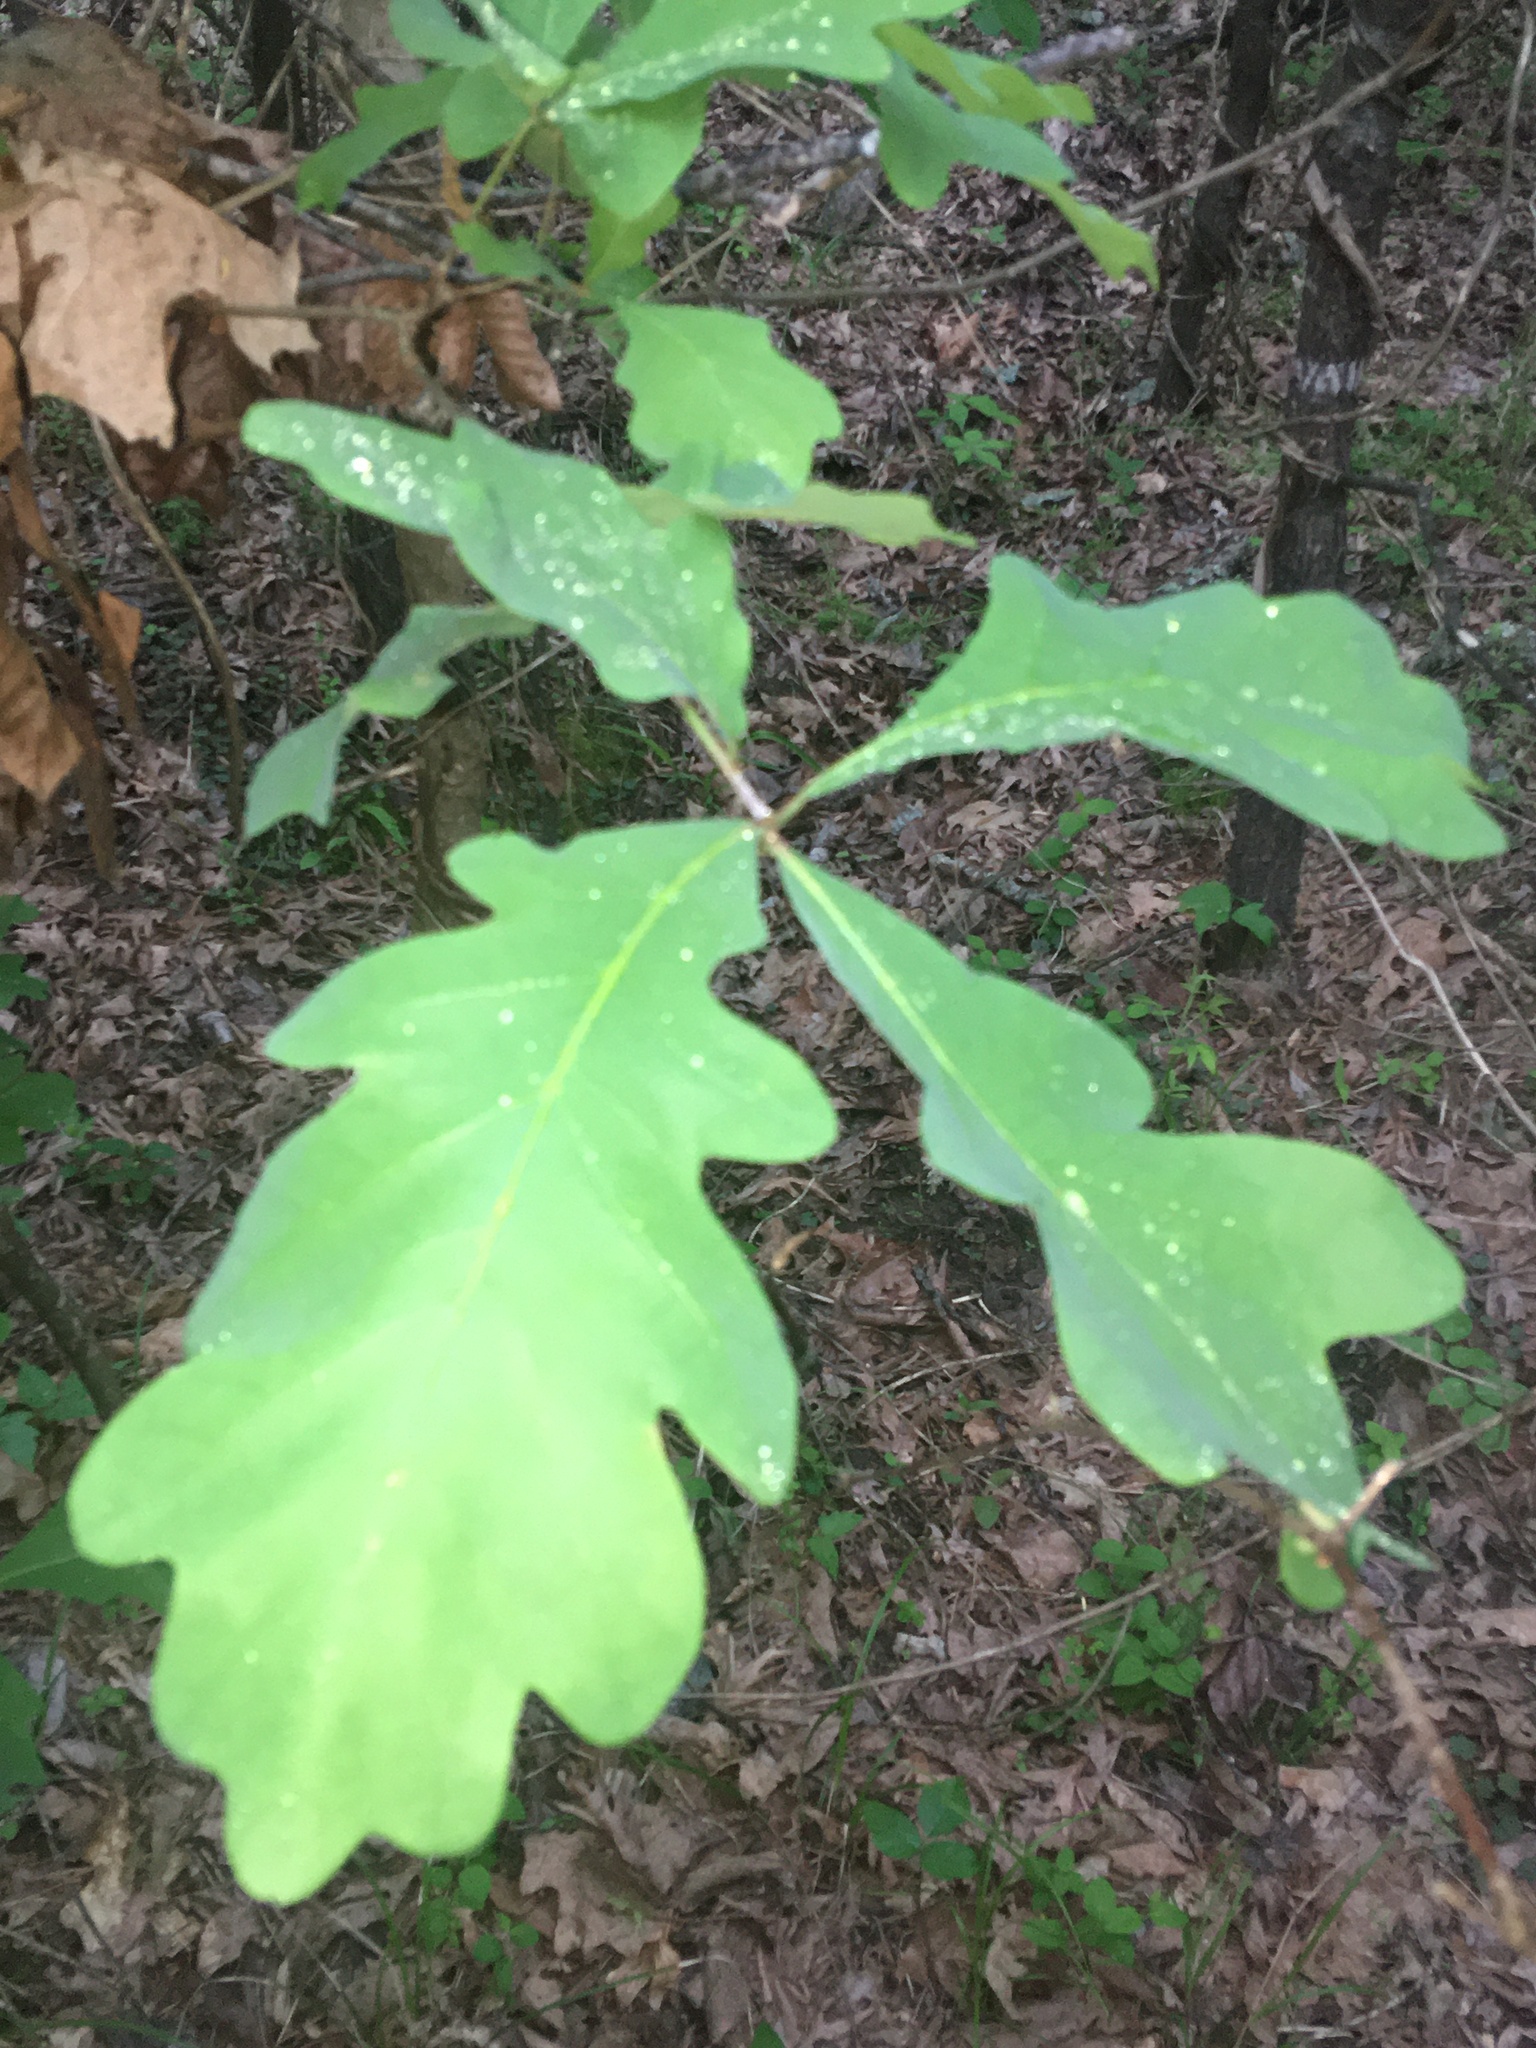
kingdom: Plantae
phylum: Tracheophyta
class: Magnoliopsida
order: Fagales
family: Fagaceae
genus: Quercus
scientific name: Quercus alba
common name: White oak
